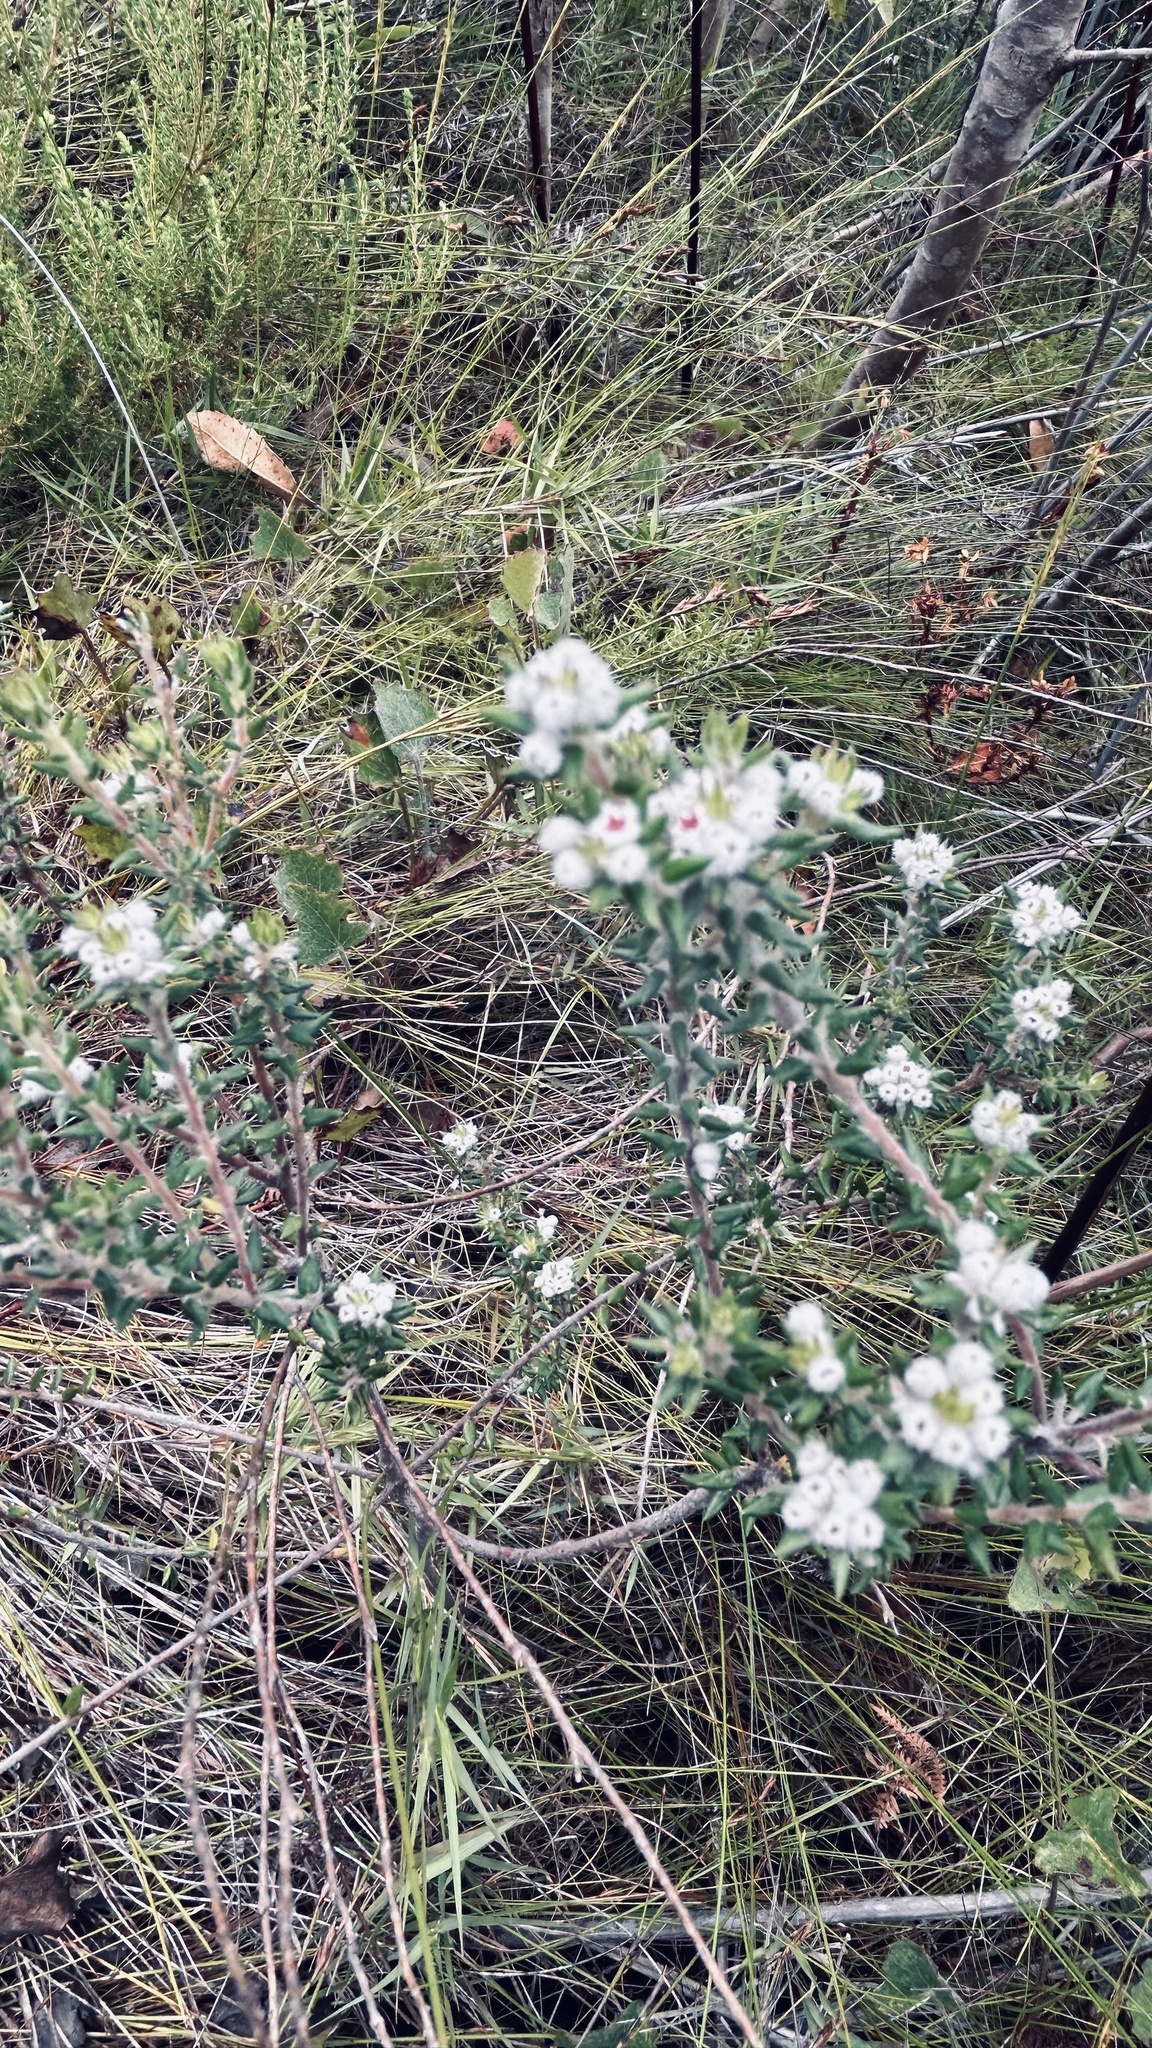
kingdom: Plantae
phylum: Tracheophyta
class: Magnoliopsida
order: Rosales
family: Rhamnaceae
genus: Phylica
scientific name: Phylica purpurea
